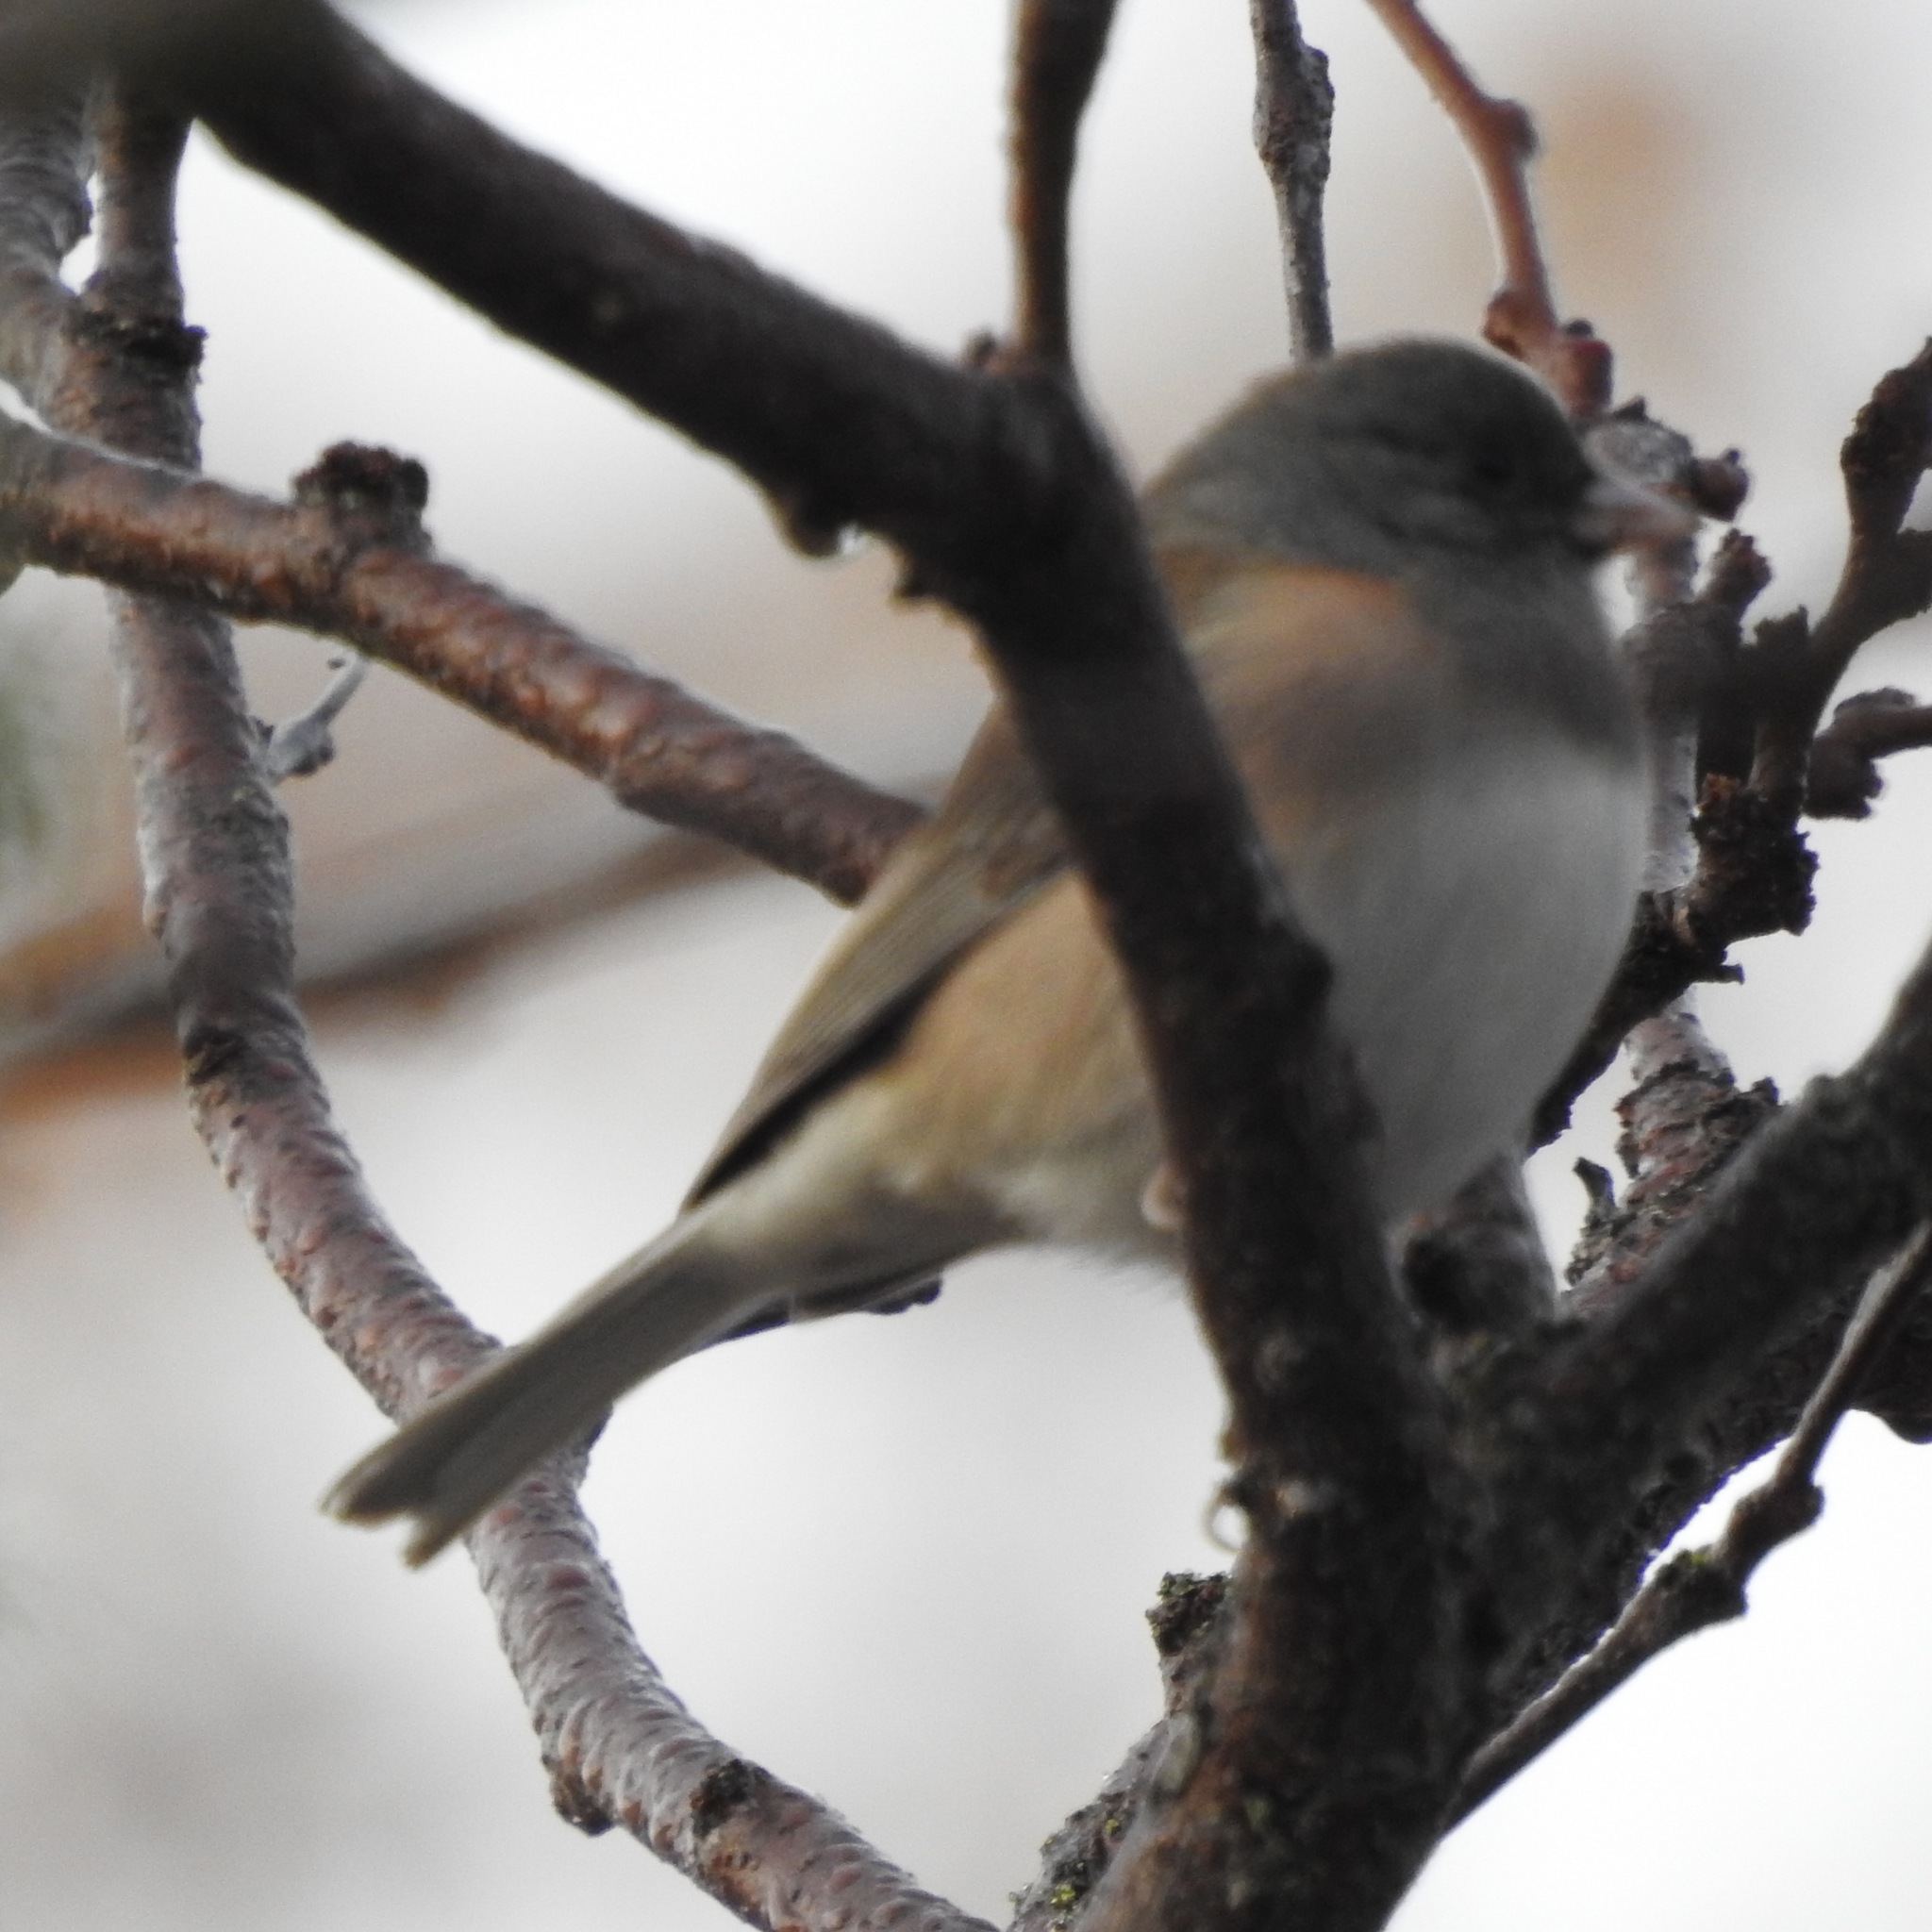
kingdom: Animalia
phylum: Chordata
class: Aves
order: Passeriformes
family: Passerellidae
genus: Junco
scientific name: Junco hyemalis
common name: Dark-eyed junco
